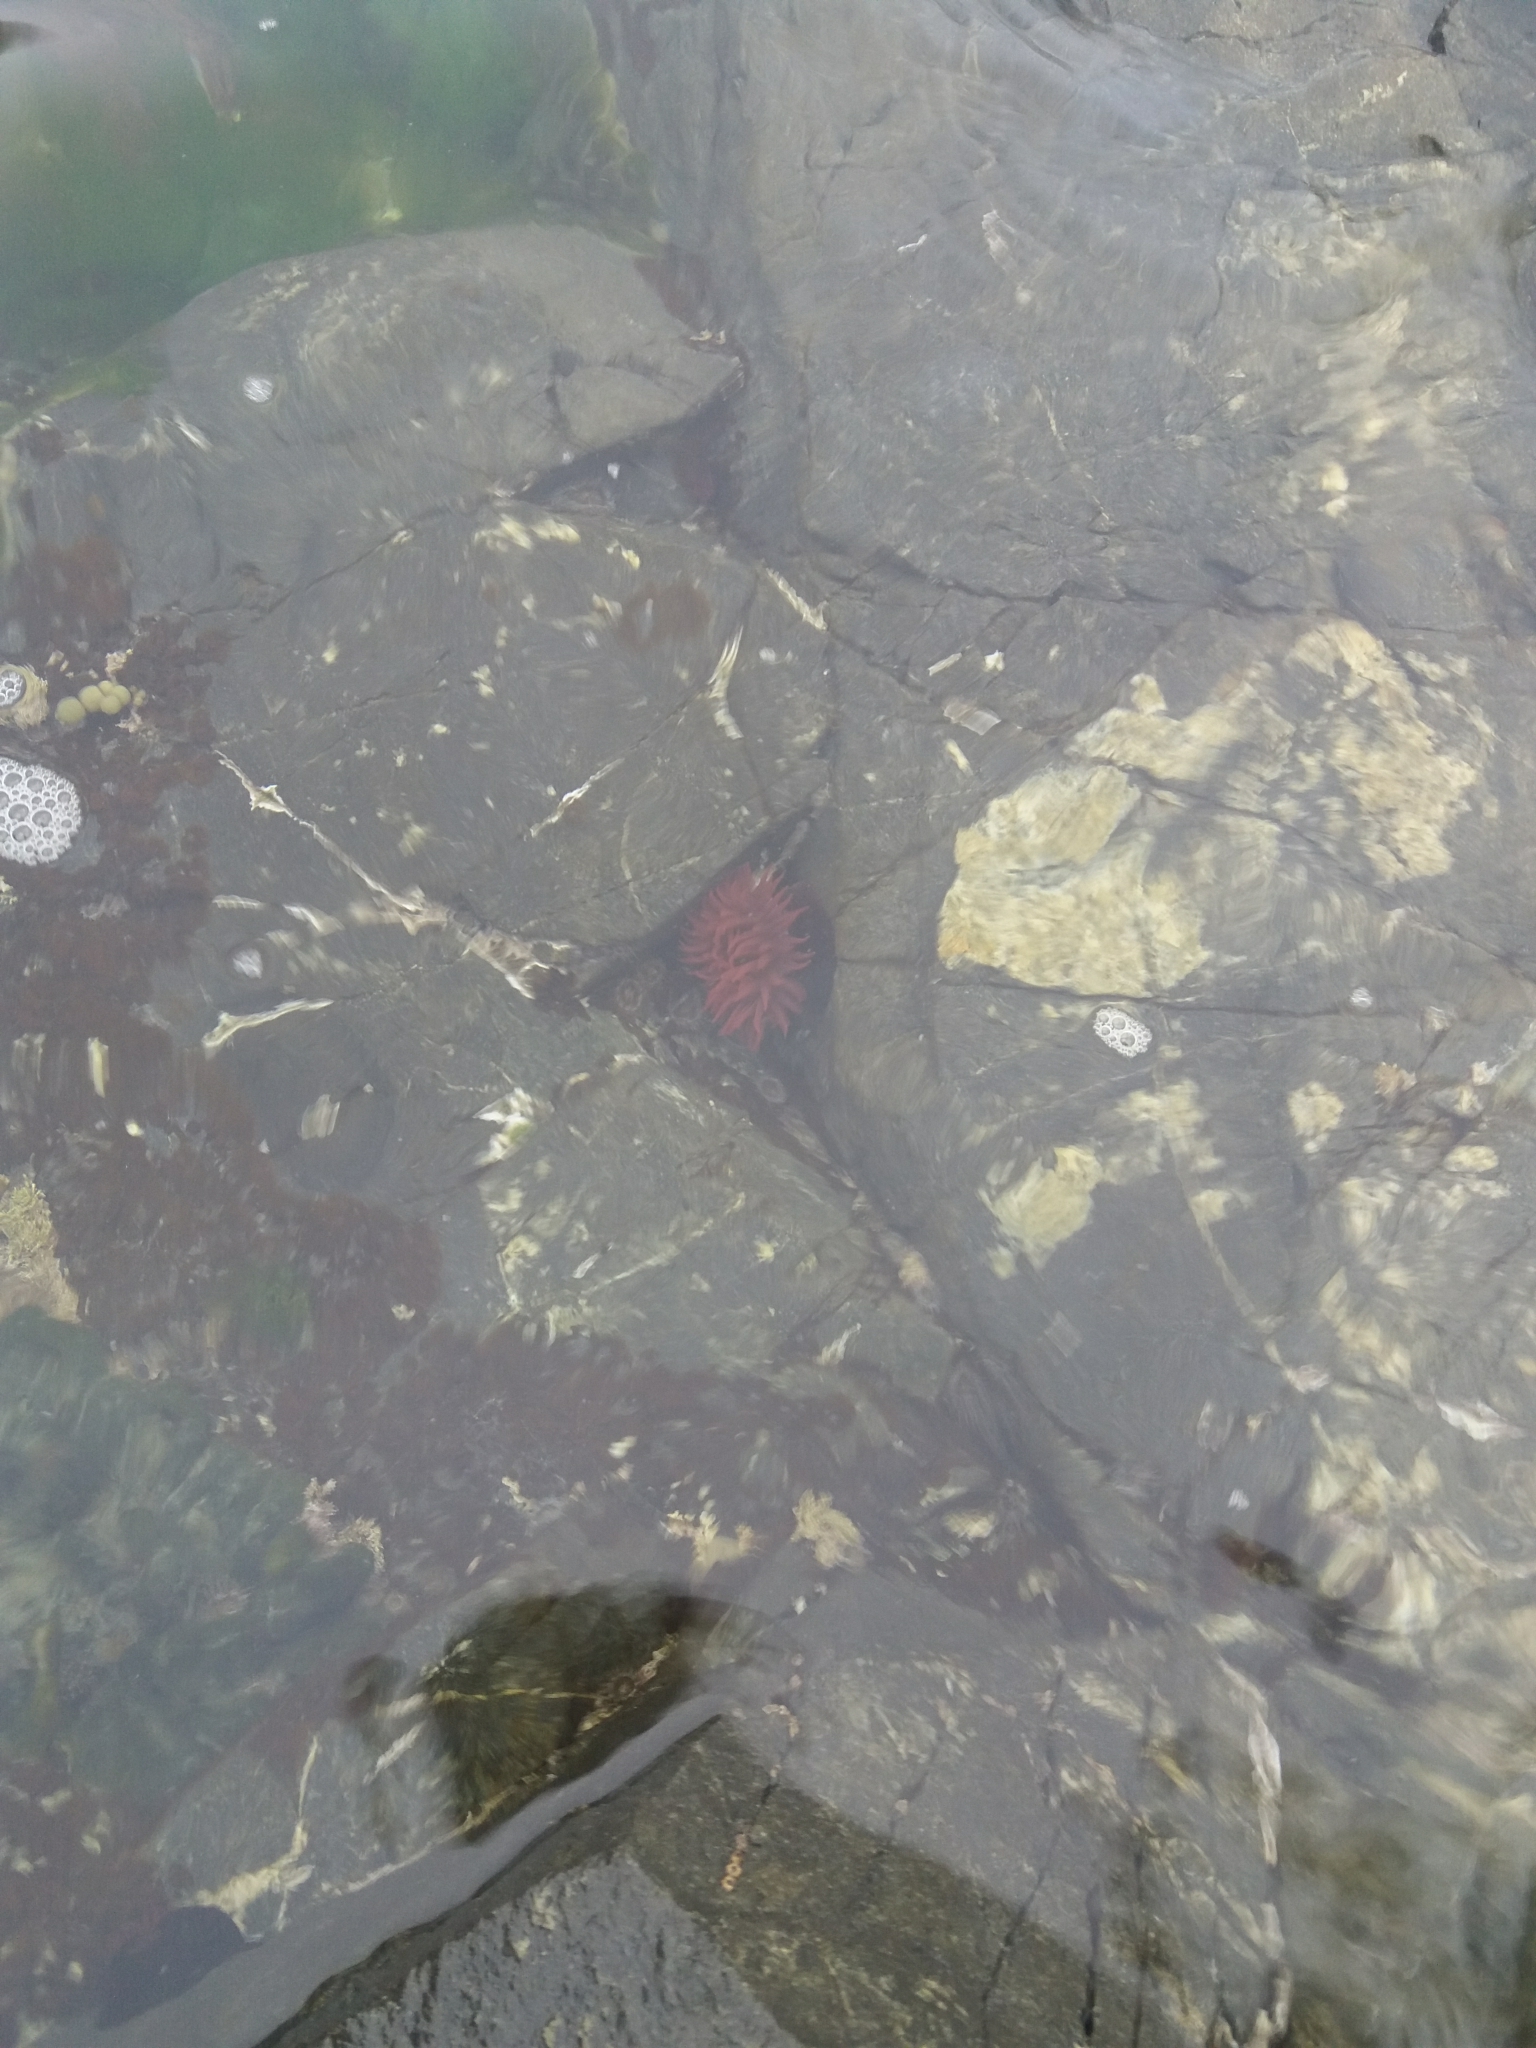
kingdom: Animalia
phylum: Cnidaria
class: Anthozoa
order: Actiniaria
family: Actiniidae
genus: Actinia
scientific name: Actinia tenebrosa
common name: Waratah anemone
